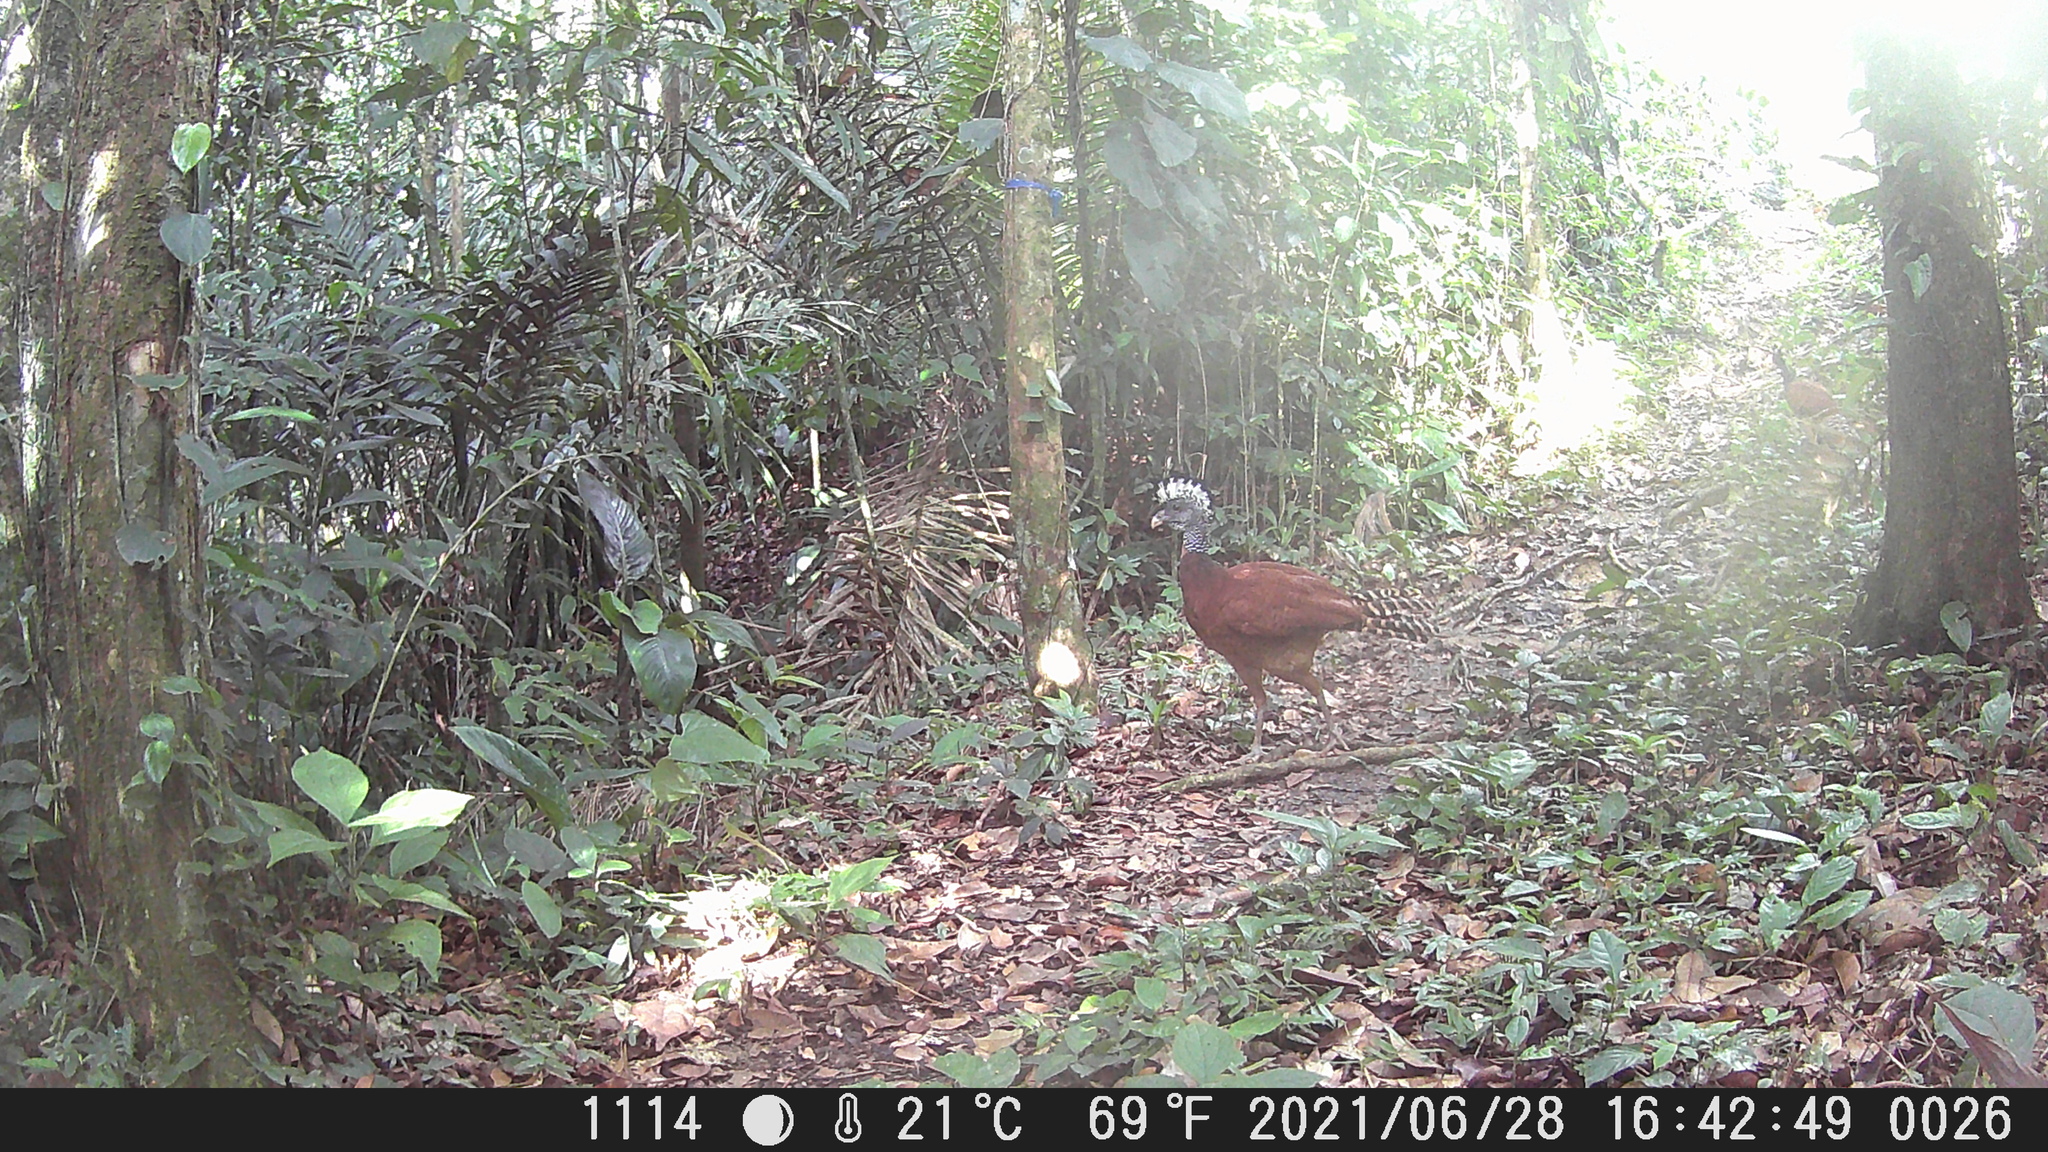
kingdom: Animalia
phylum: Chordata
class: Aves
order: Galliformes
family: Cracidae
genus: Crax
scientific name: Crax rubra
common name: Great curassow
